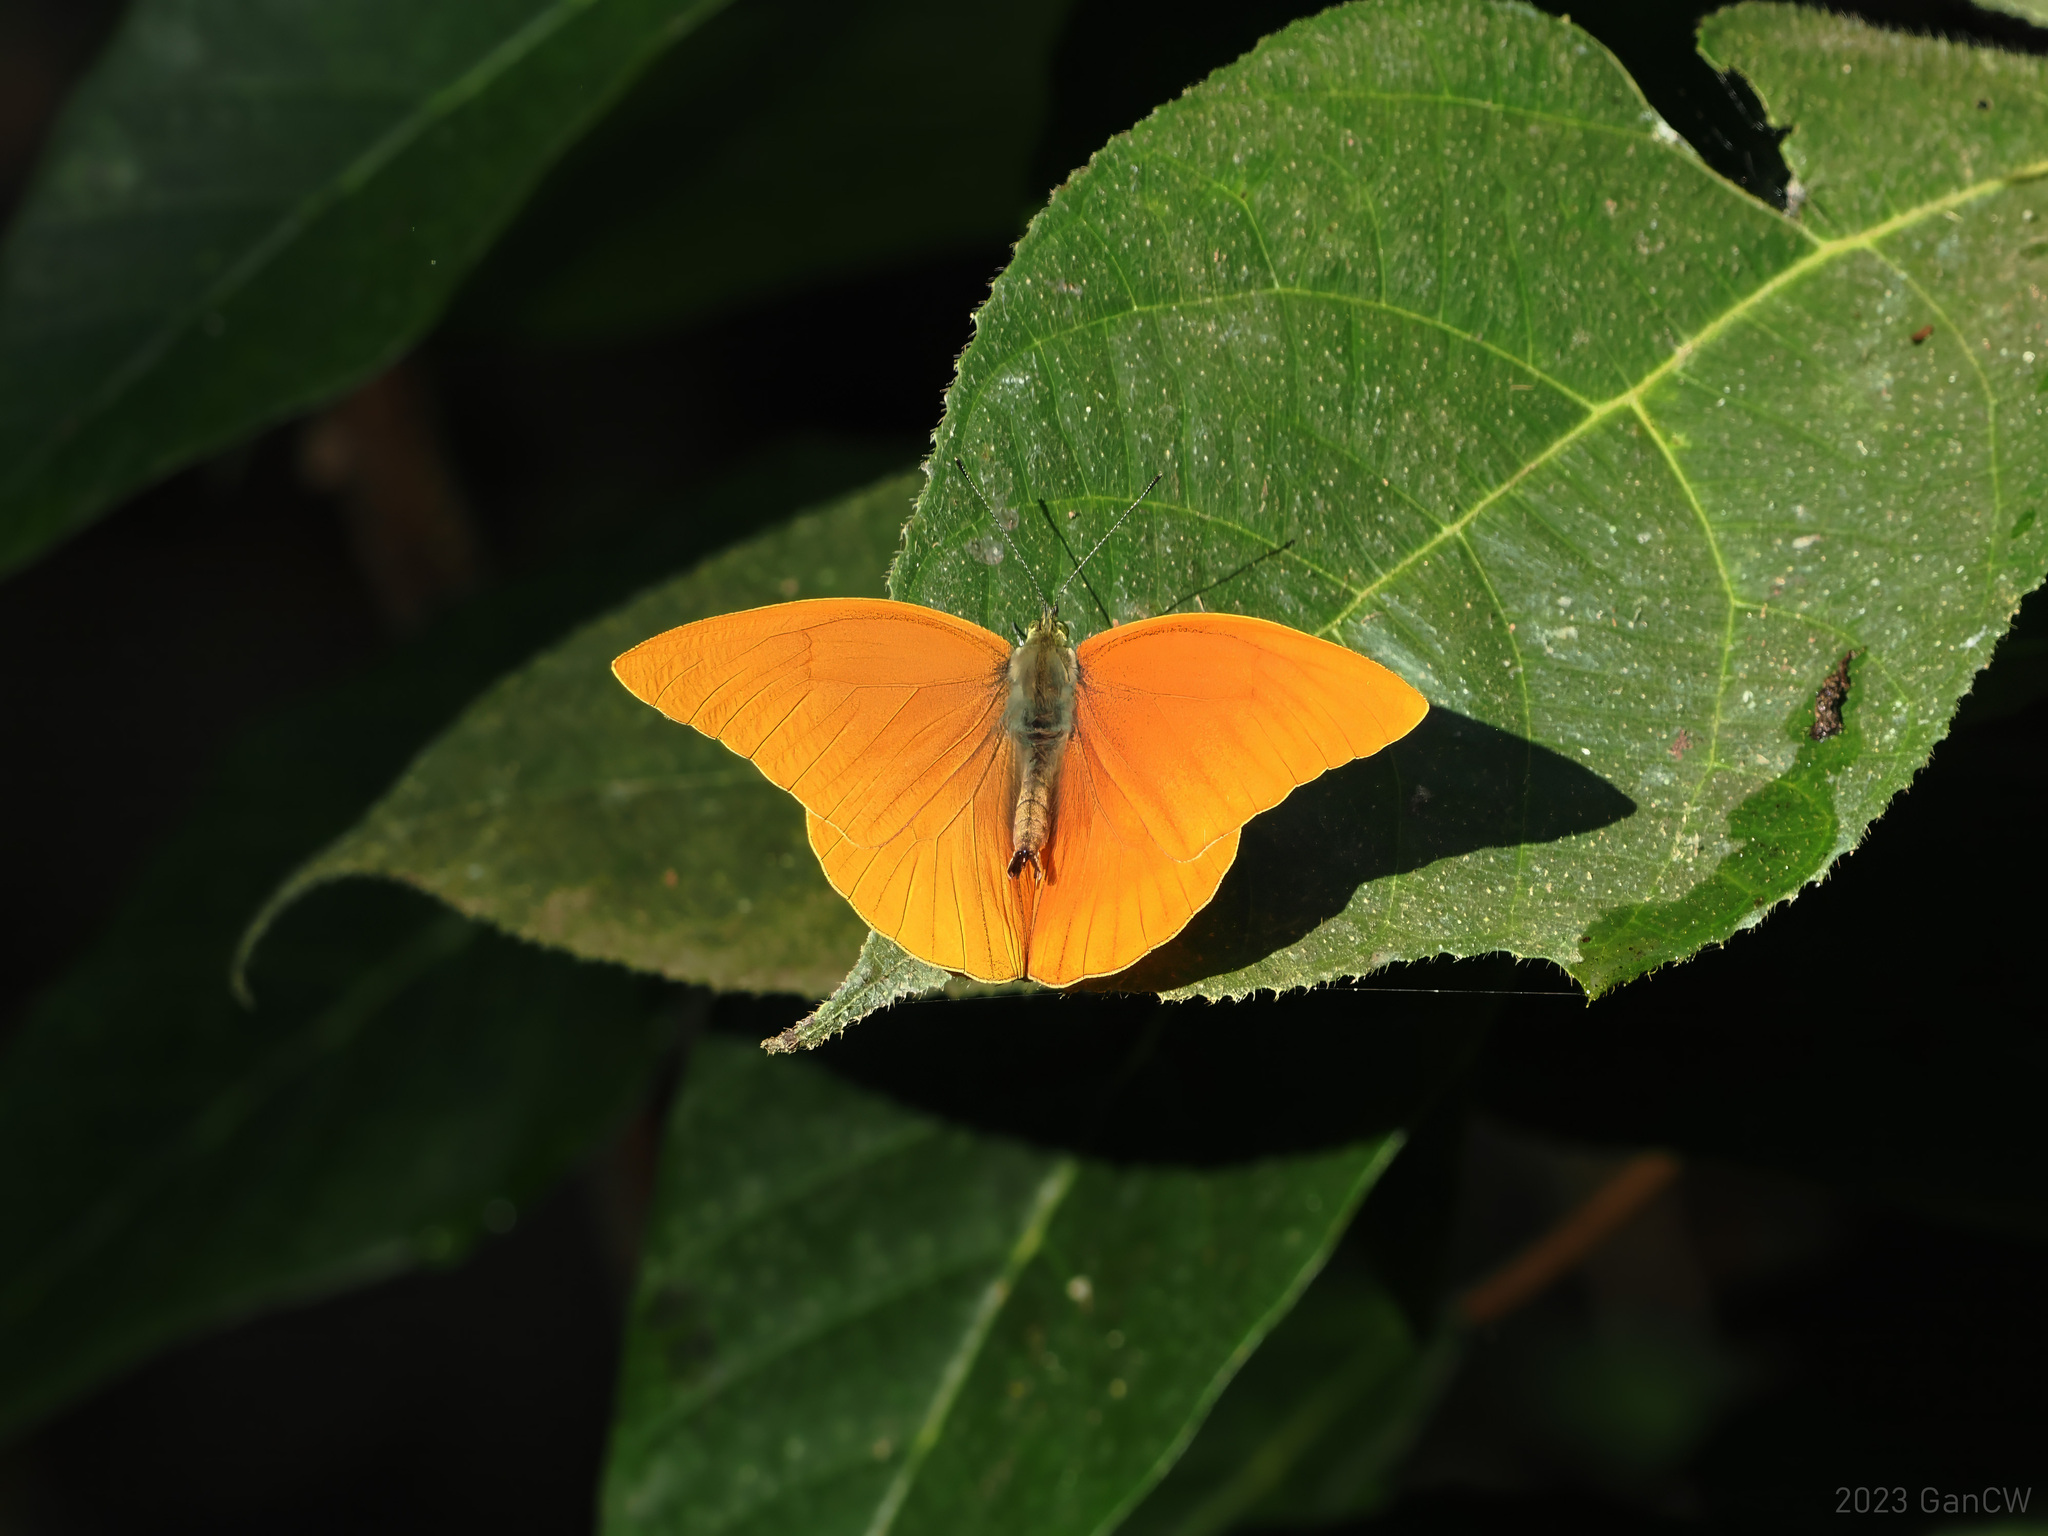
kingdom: Animalia
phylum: Arthropoda
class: Insecta
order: Lepidoptera
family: Pieridae
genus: Appias
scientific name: Appias zarinda
